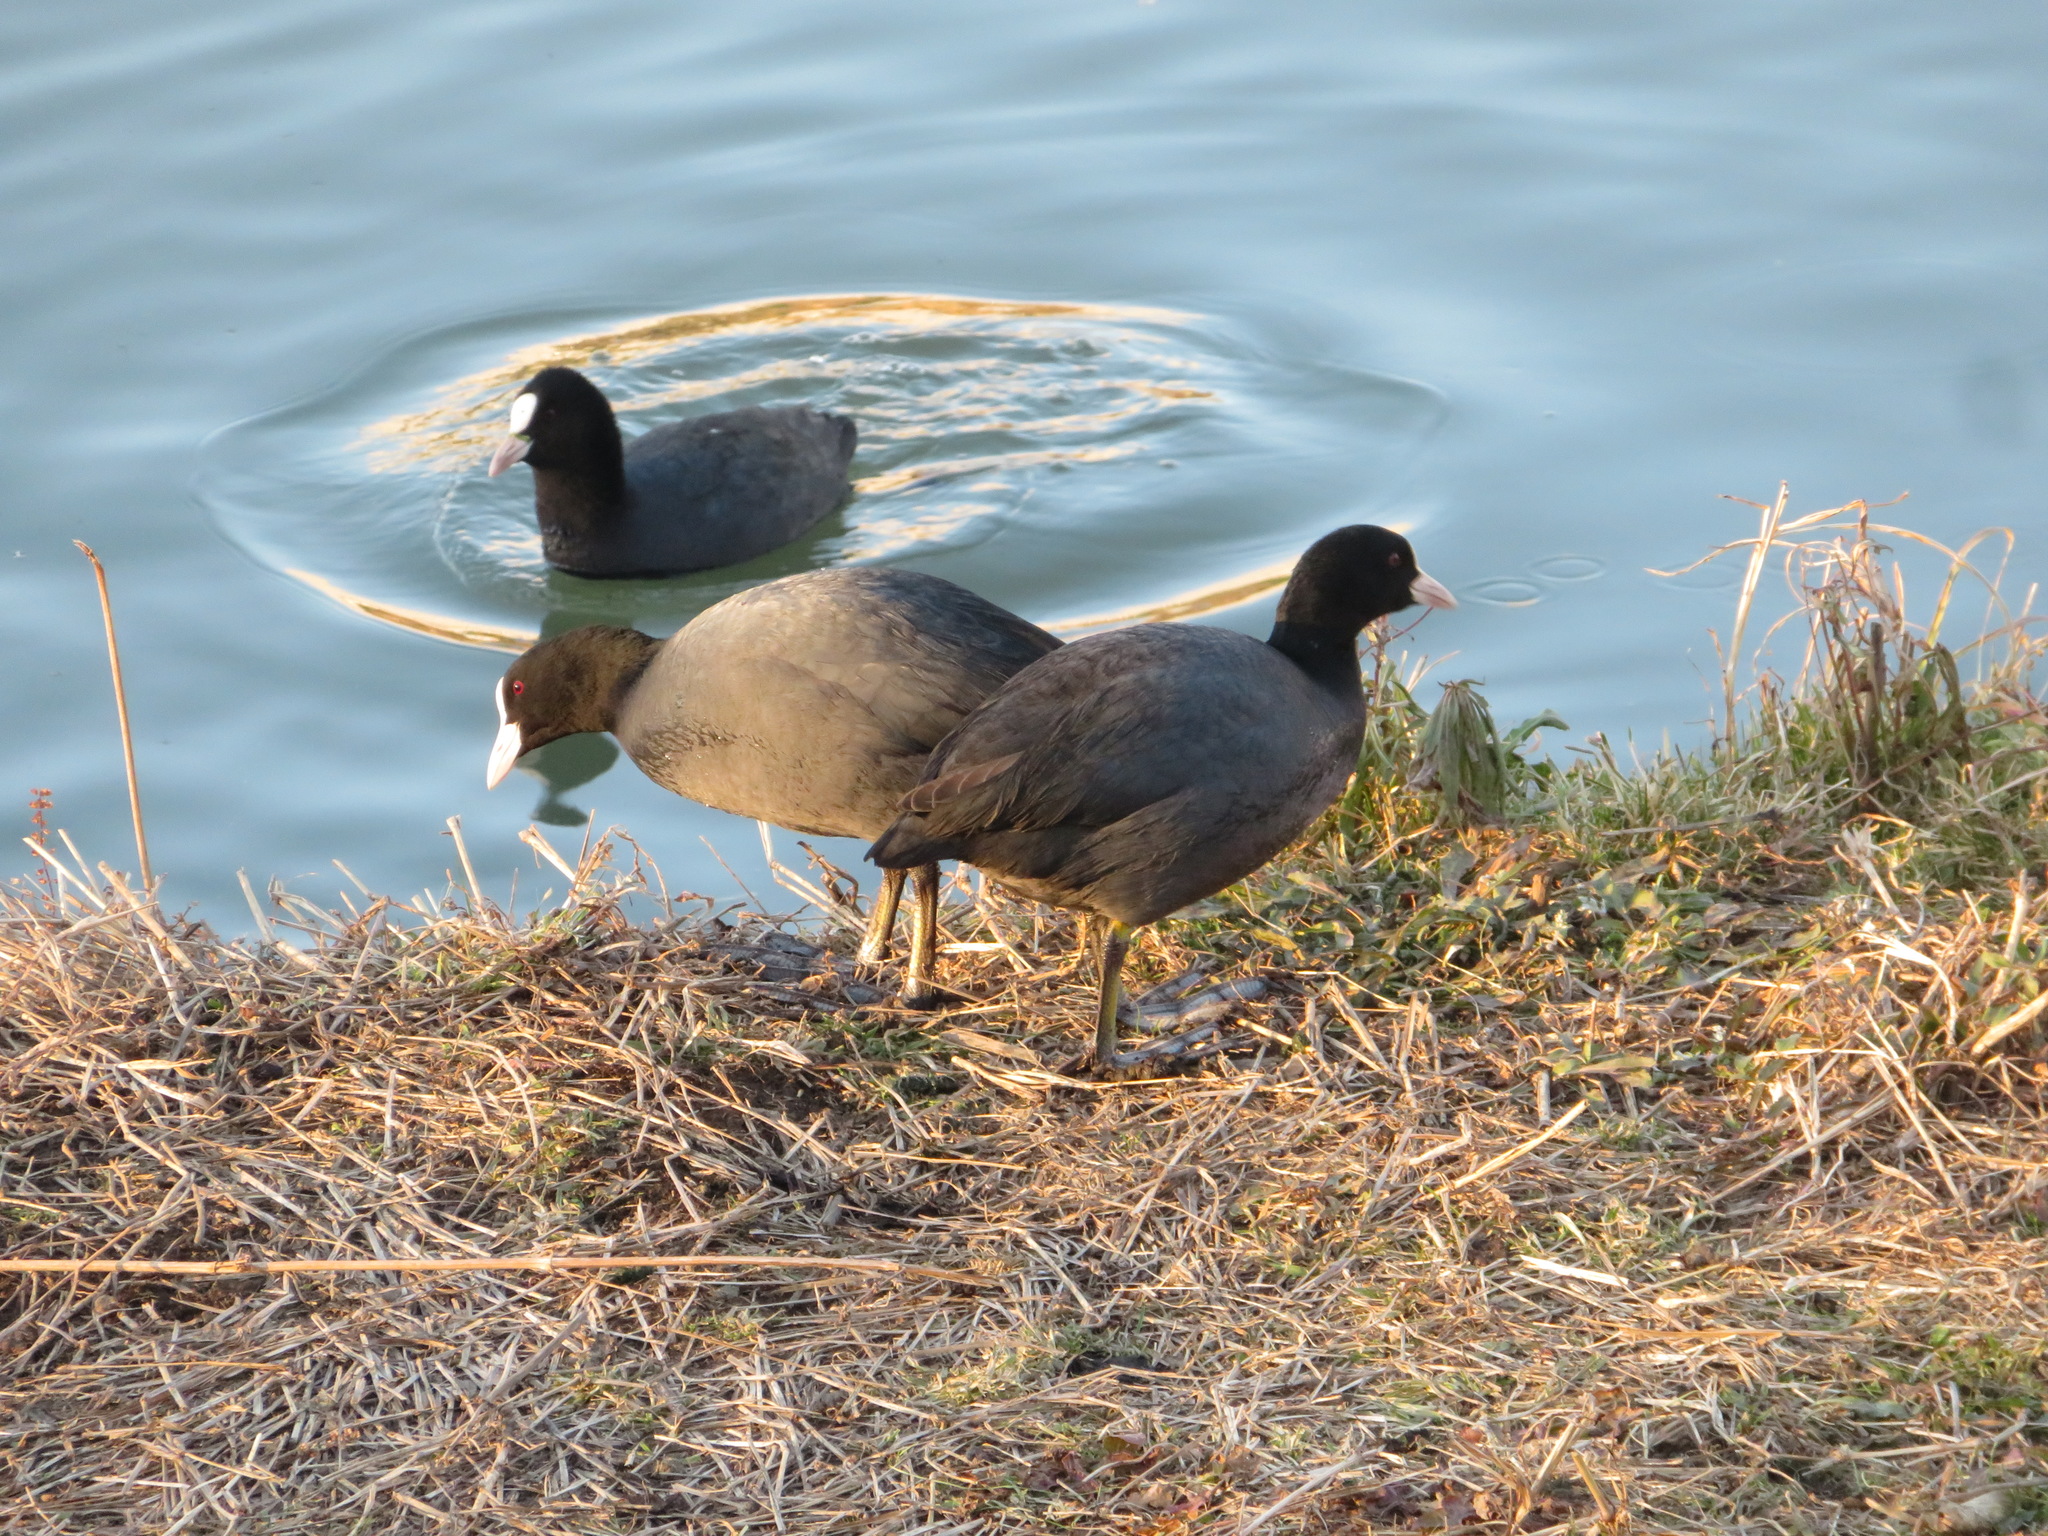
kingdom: Animalia
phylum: Chordata
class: Aves
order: Gruiformes
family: Rallidae
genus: Fulica
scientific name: Fulica atra
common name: Eurasian coot
